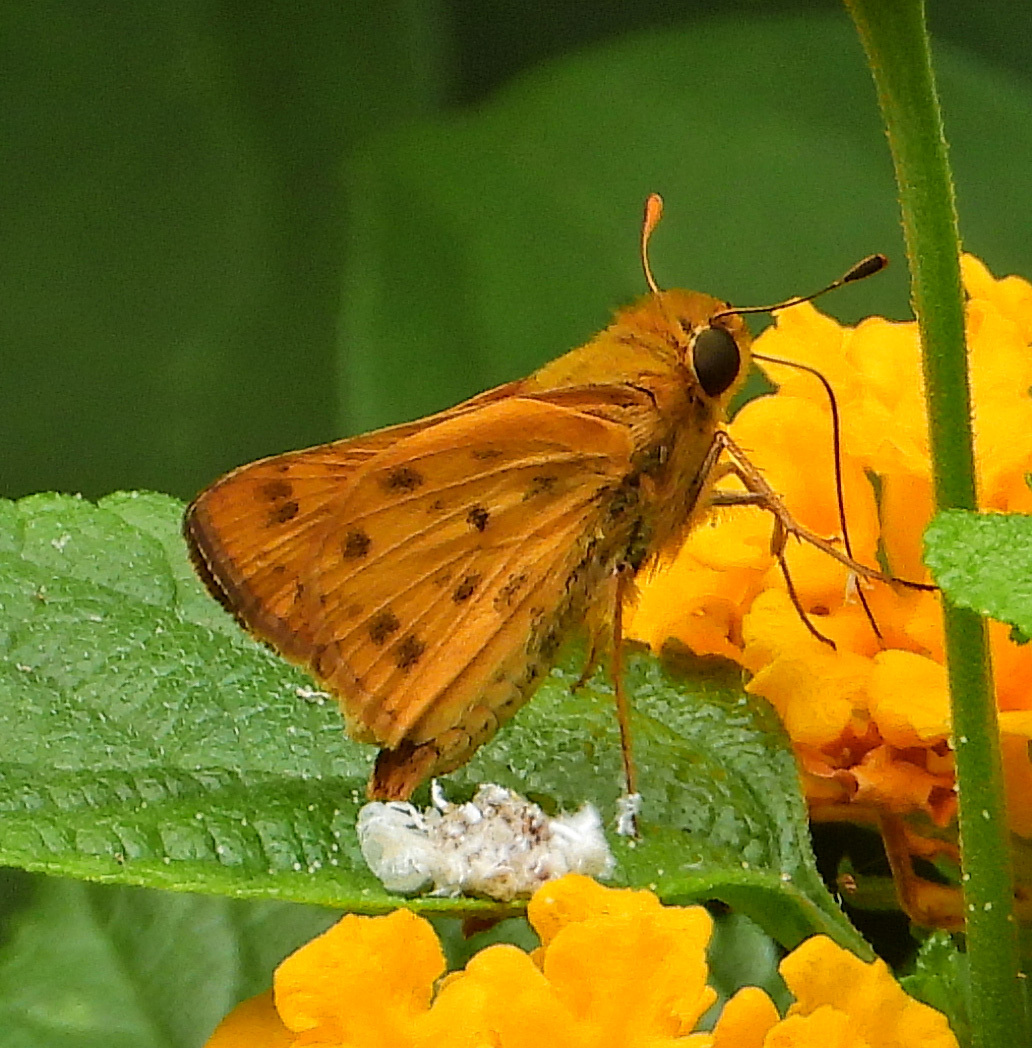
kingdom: Animalia
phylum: Arthropoda
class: Insecta
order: Lepidoptera
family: Hesperiidae
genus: Hylephila
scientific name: Hylephila phyleus
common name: Fiery skipper
